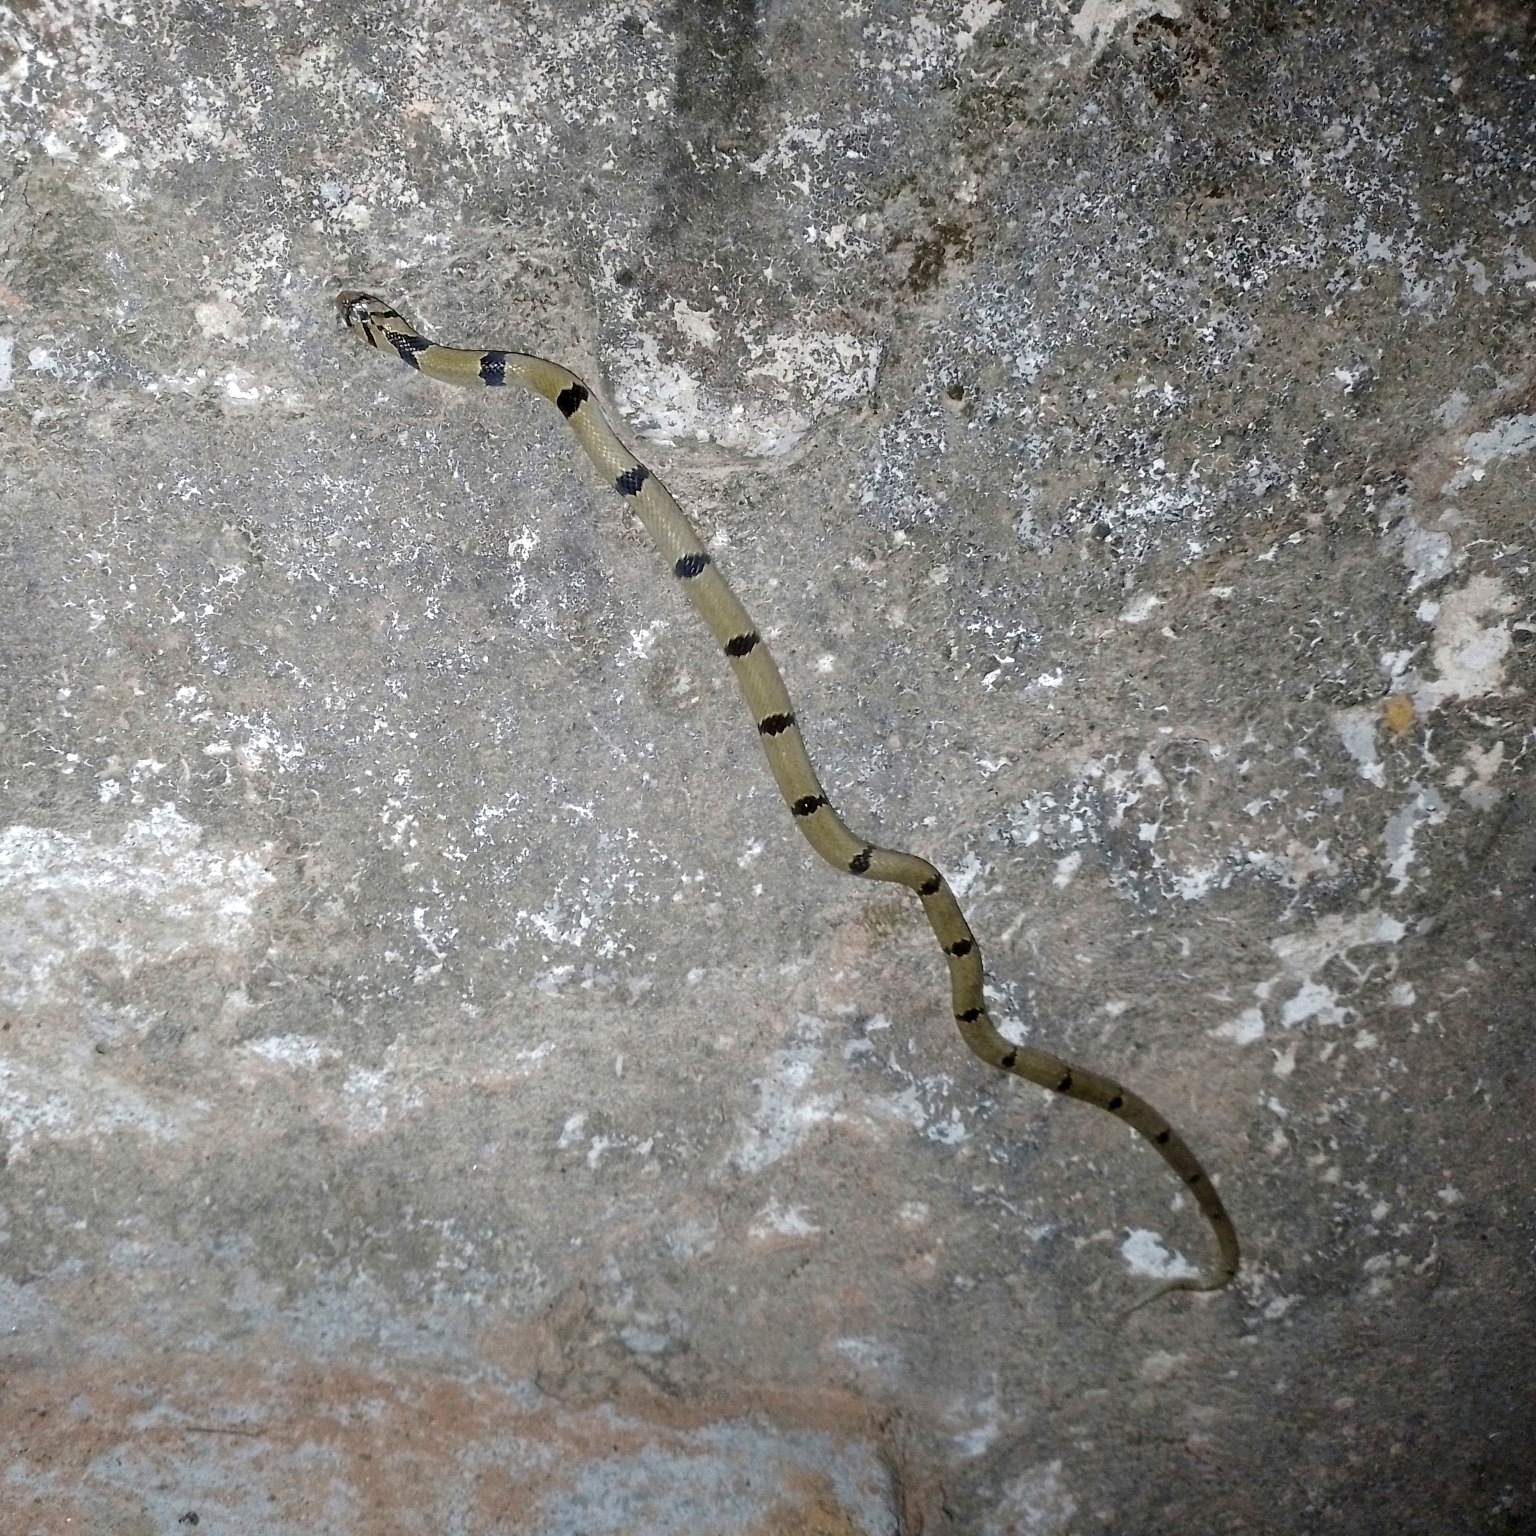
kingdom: Animalia
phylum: Chordata
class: Squamata
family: Colubridae
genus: Oligodon
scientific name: Oligodon arnensis
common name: Banded kukri
